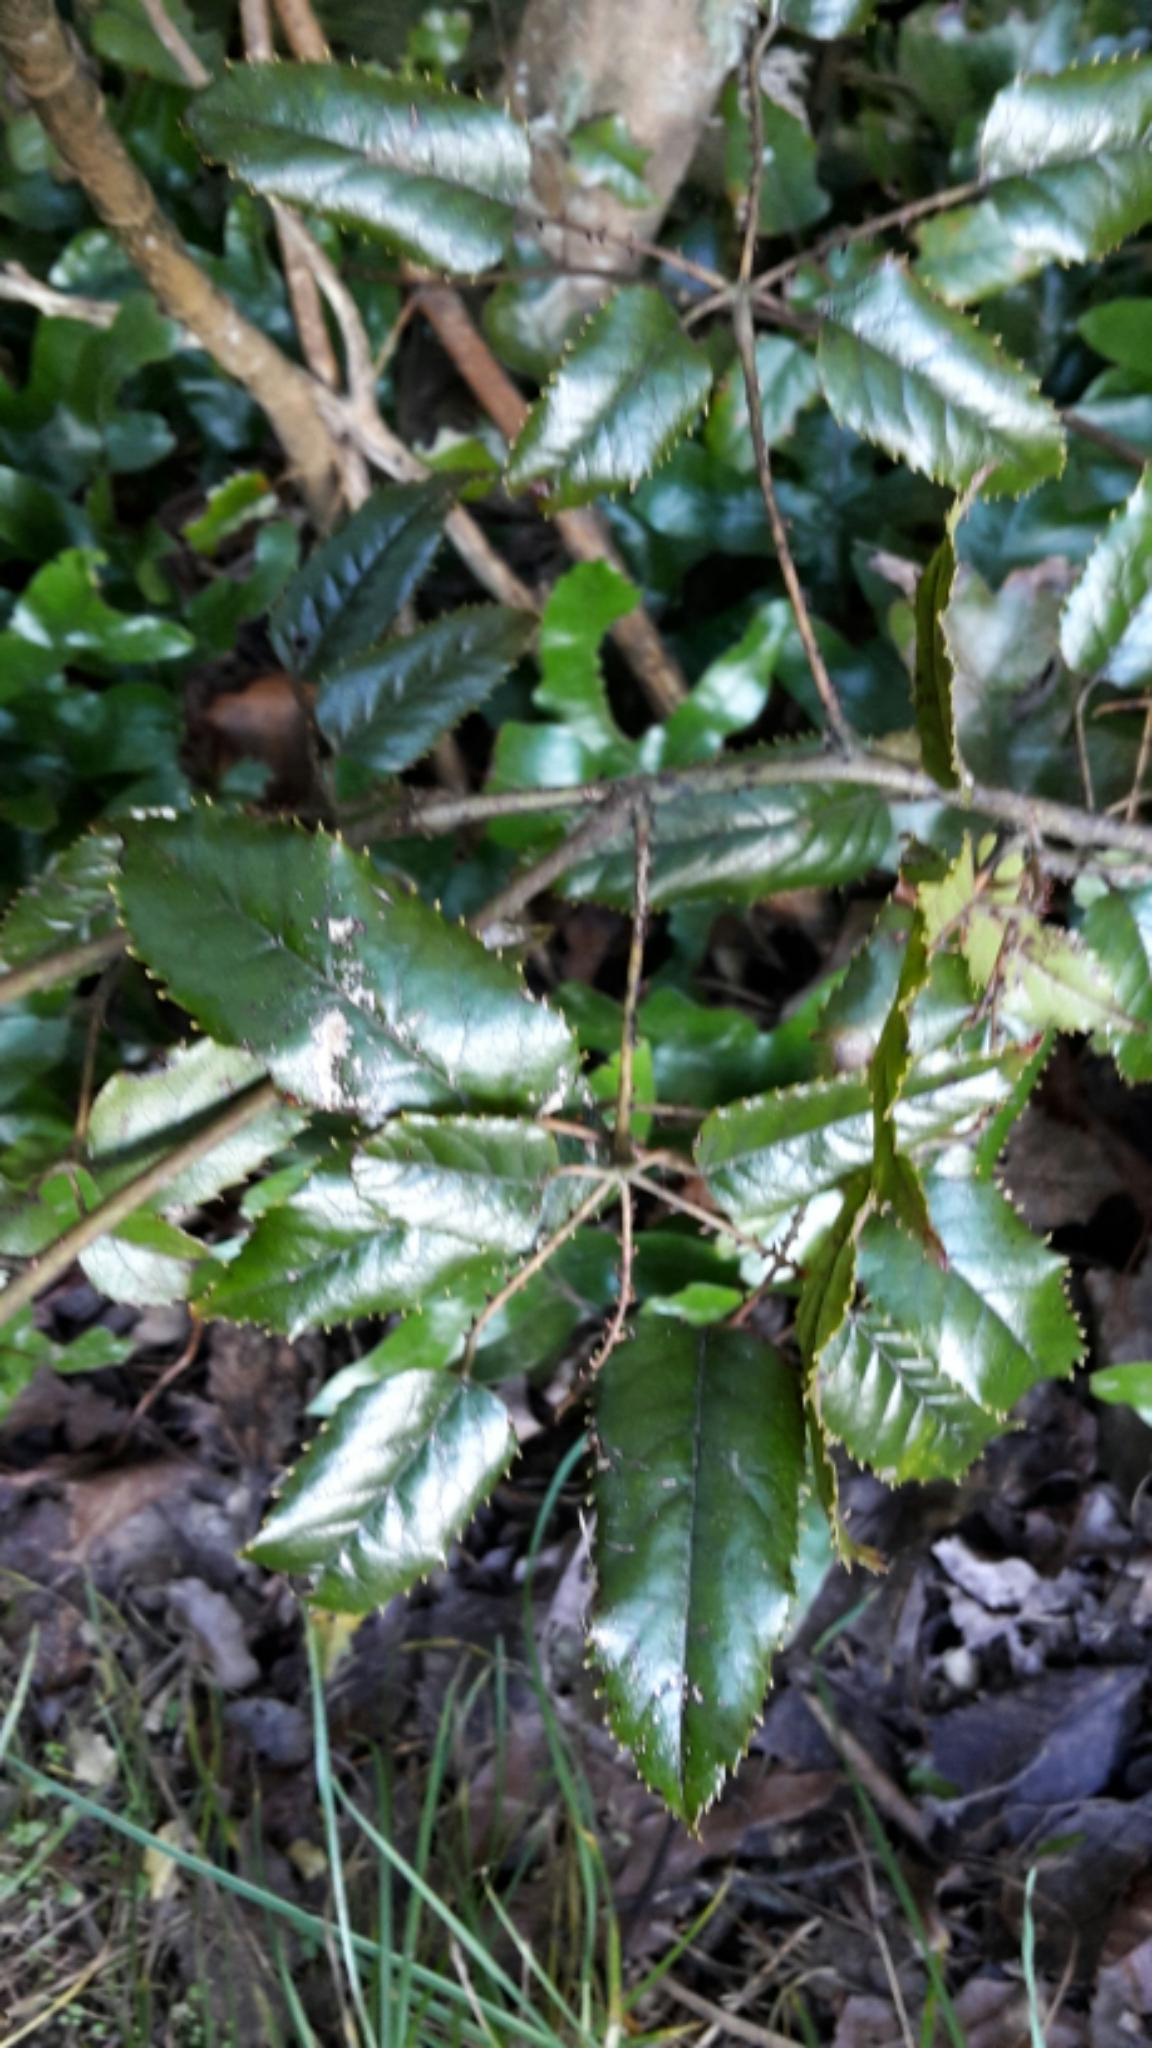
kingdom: Plantae
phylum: Tracheophyta
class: Magnoliopsida
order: Rosales
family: Rosaceae
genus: Rubus
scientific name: Rubus cissoides
